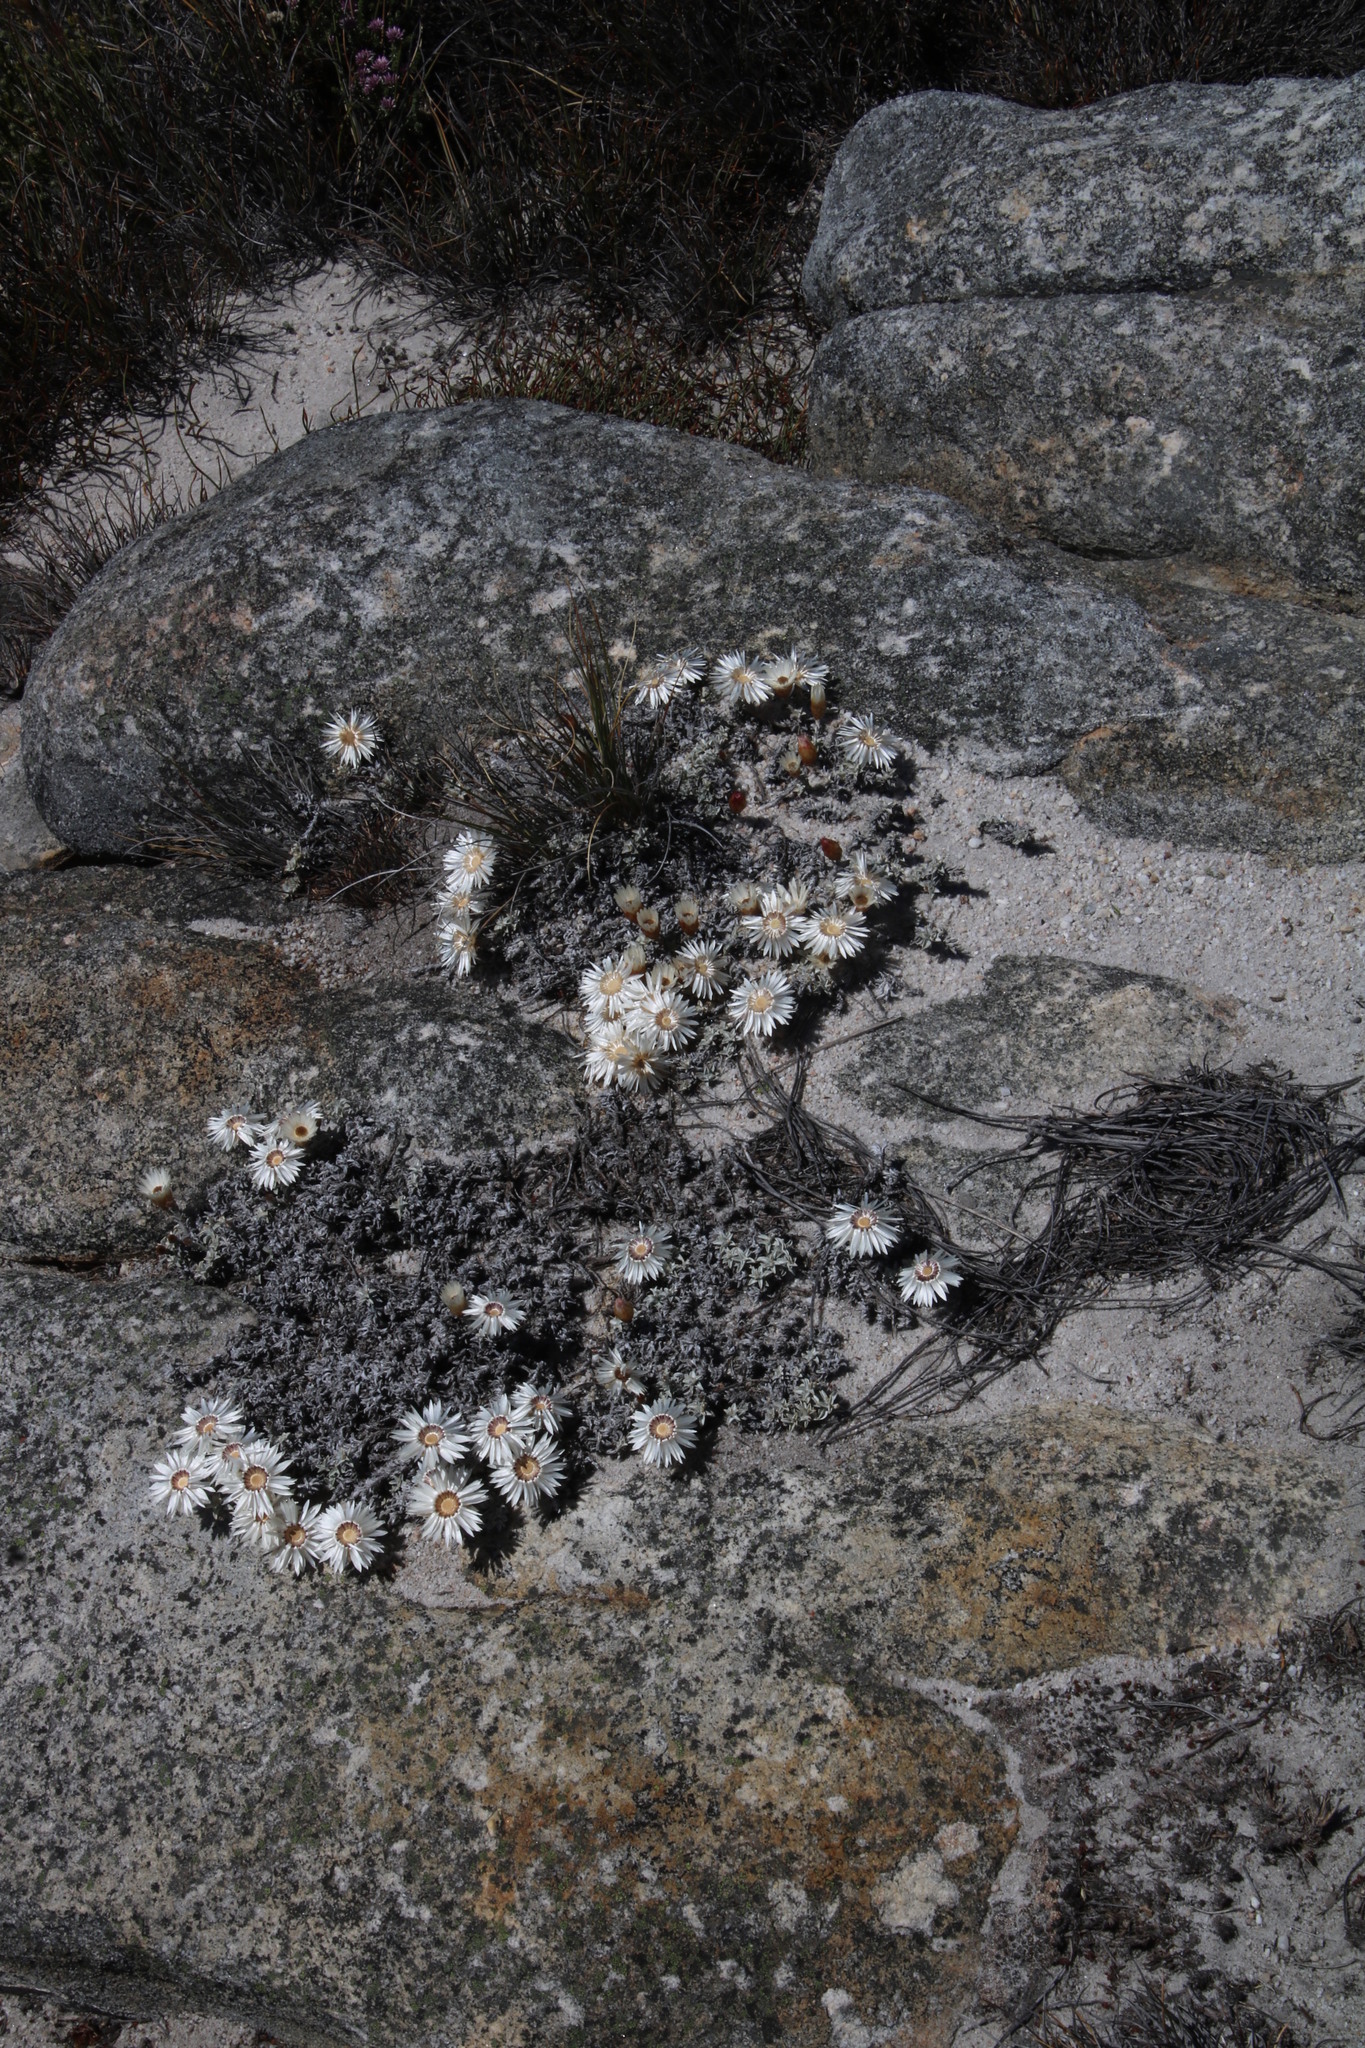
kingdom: Plantae
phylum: Tracheophyta
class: Magnoliopsida
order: Asterales
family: Asteraceae
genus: Helichrysum
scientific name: Helichrysum stoloniferum
